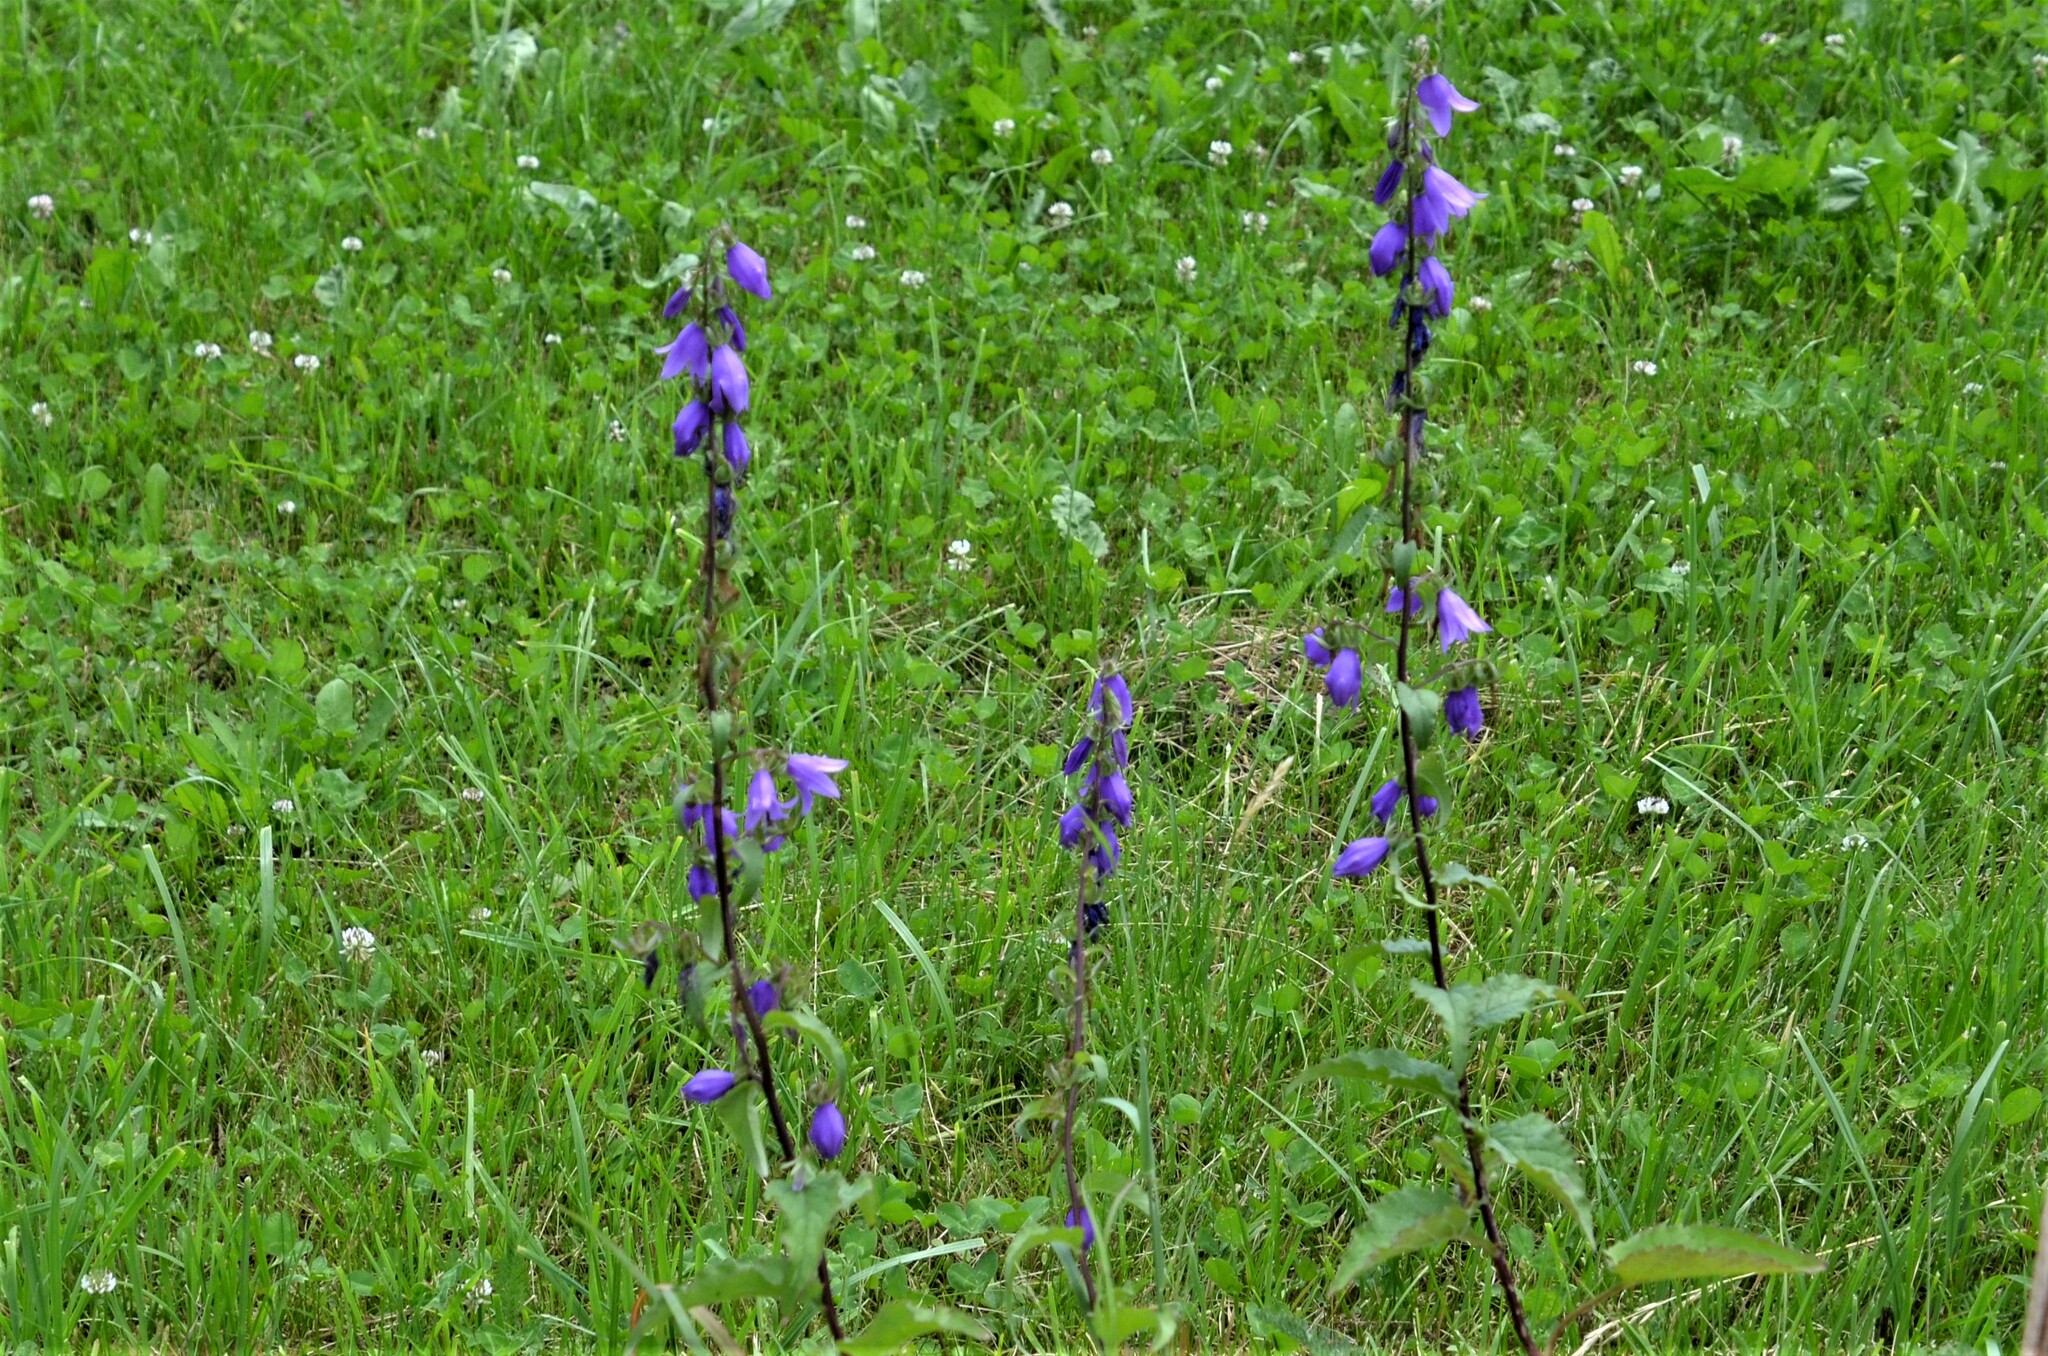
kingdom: Plantae
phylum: Tracheophyta
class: Magnoliopsida
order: Asterales
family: Campanulaceae
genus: Campanula
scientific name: Campanula rapunculoides
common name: Creeping bellflower
